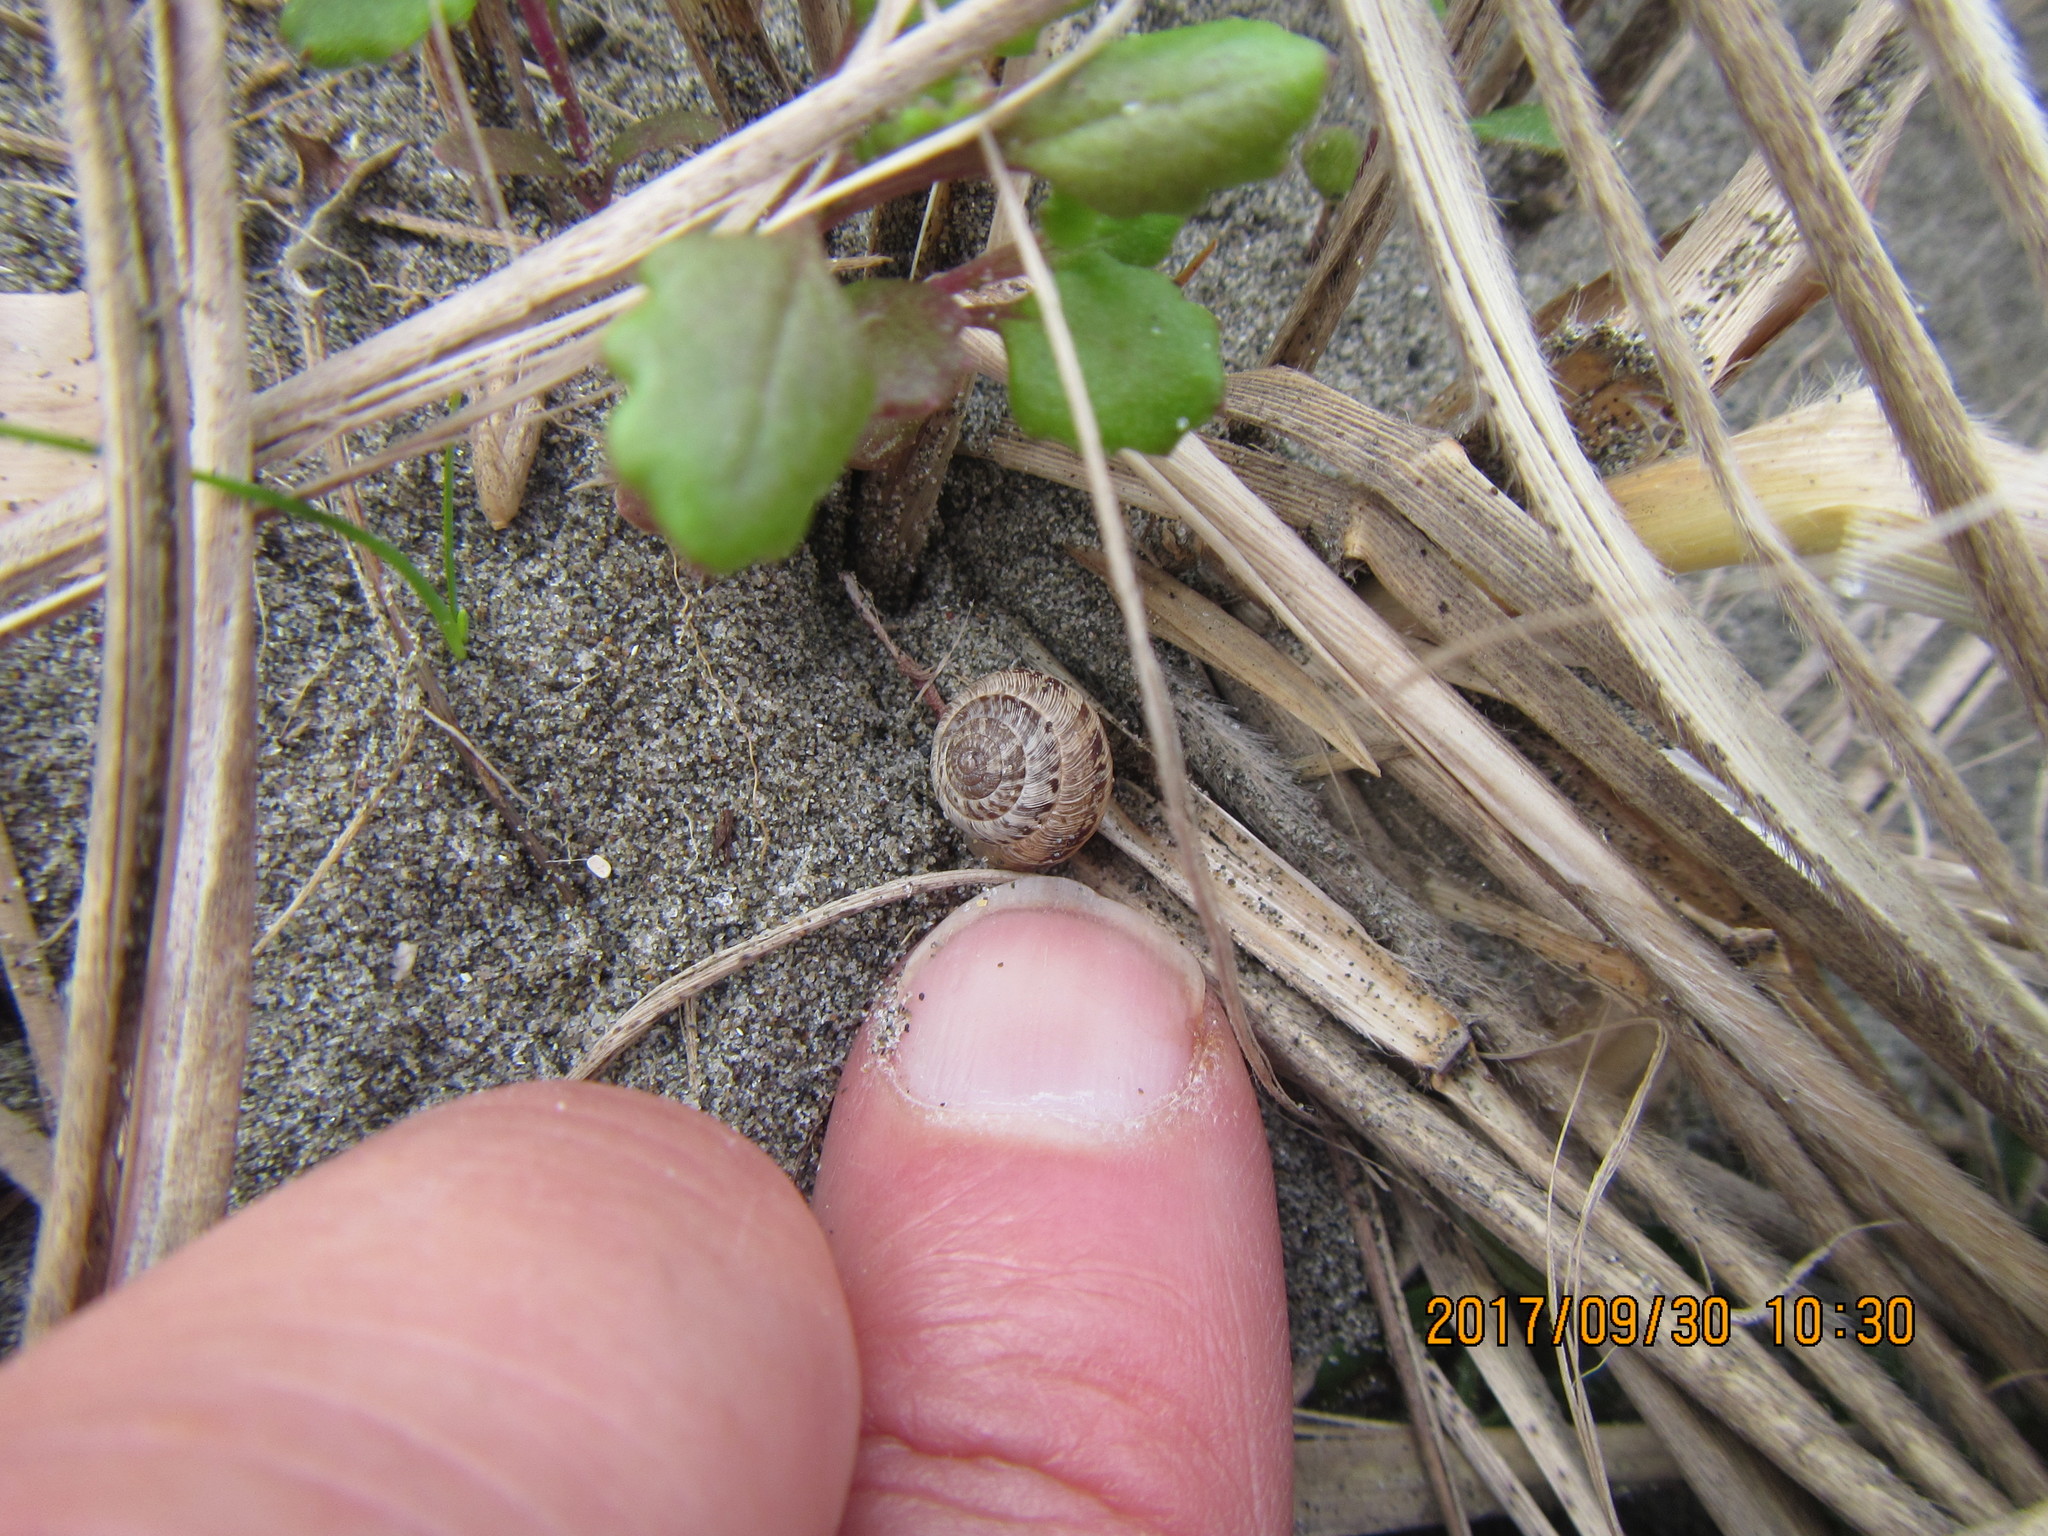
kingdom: Animalia
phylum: Mollusca
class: Gastropoda
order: Stylommatophora
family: Geomitridae
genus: Xeroplexa
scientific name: Xeroplexa intersecta
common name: Wrinkled snail
